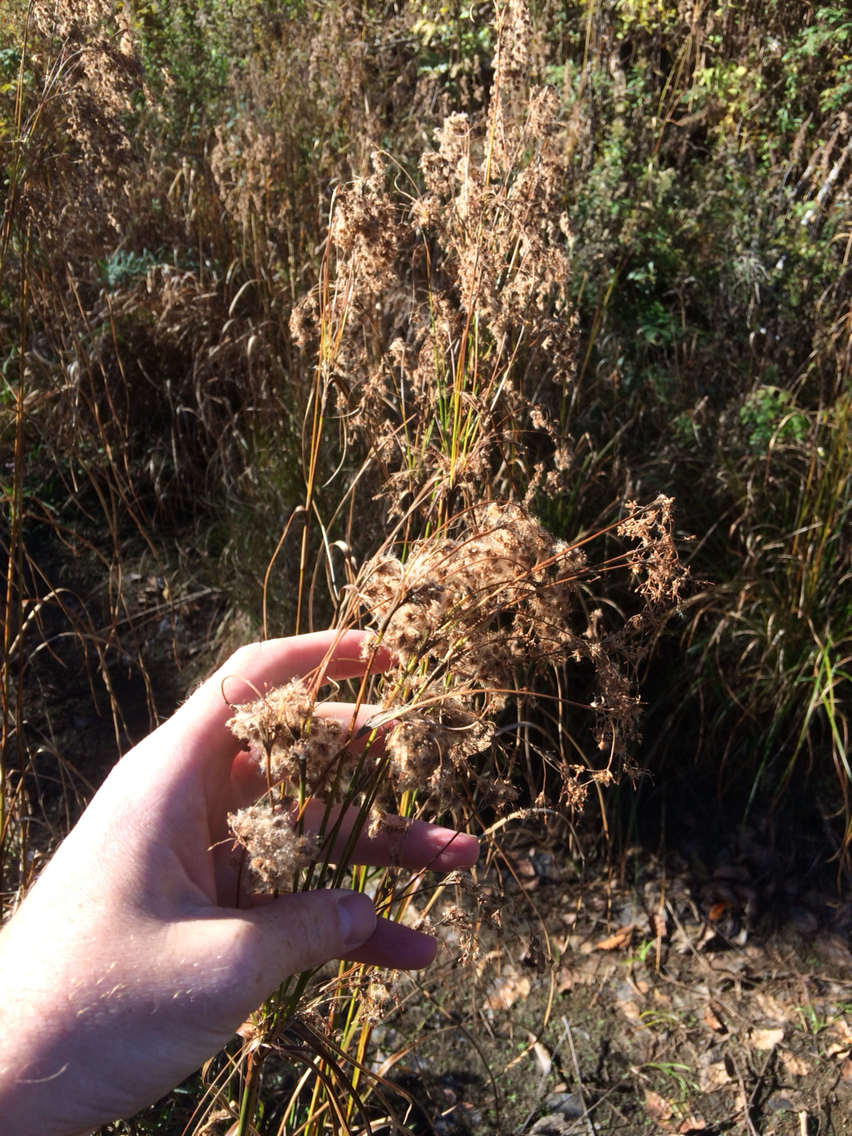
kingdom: Plantae
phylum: Tracheophyta
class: Liliopsida
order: Poales
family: Cyperaceae
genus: Scirpus
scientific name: Scirpus cyperinus
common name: Black-sheathed bulrush
